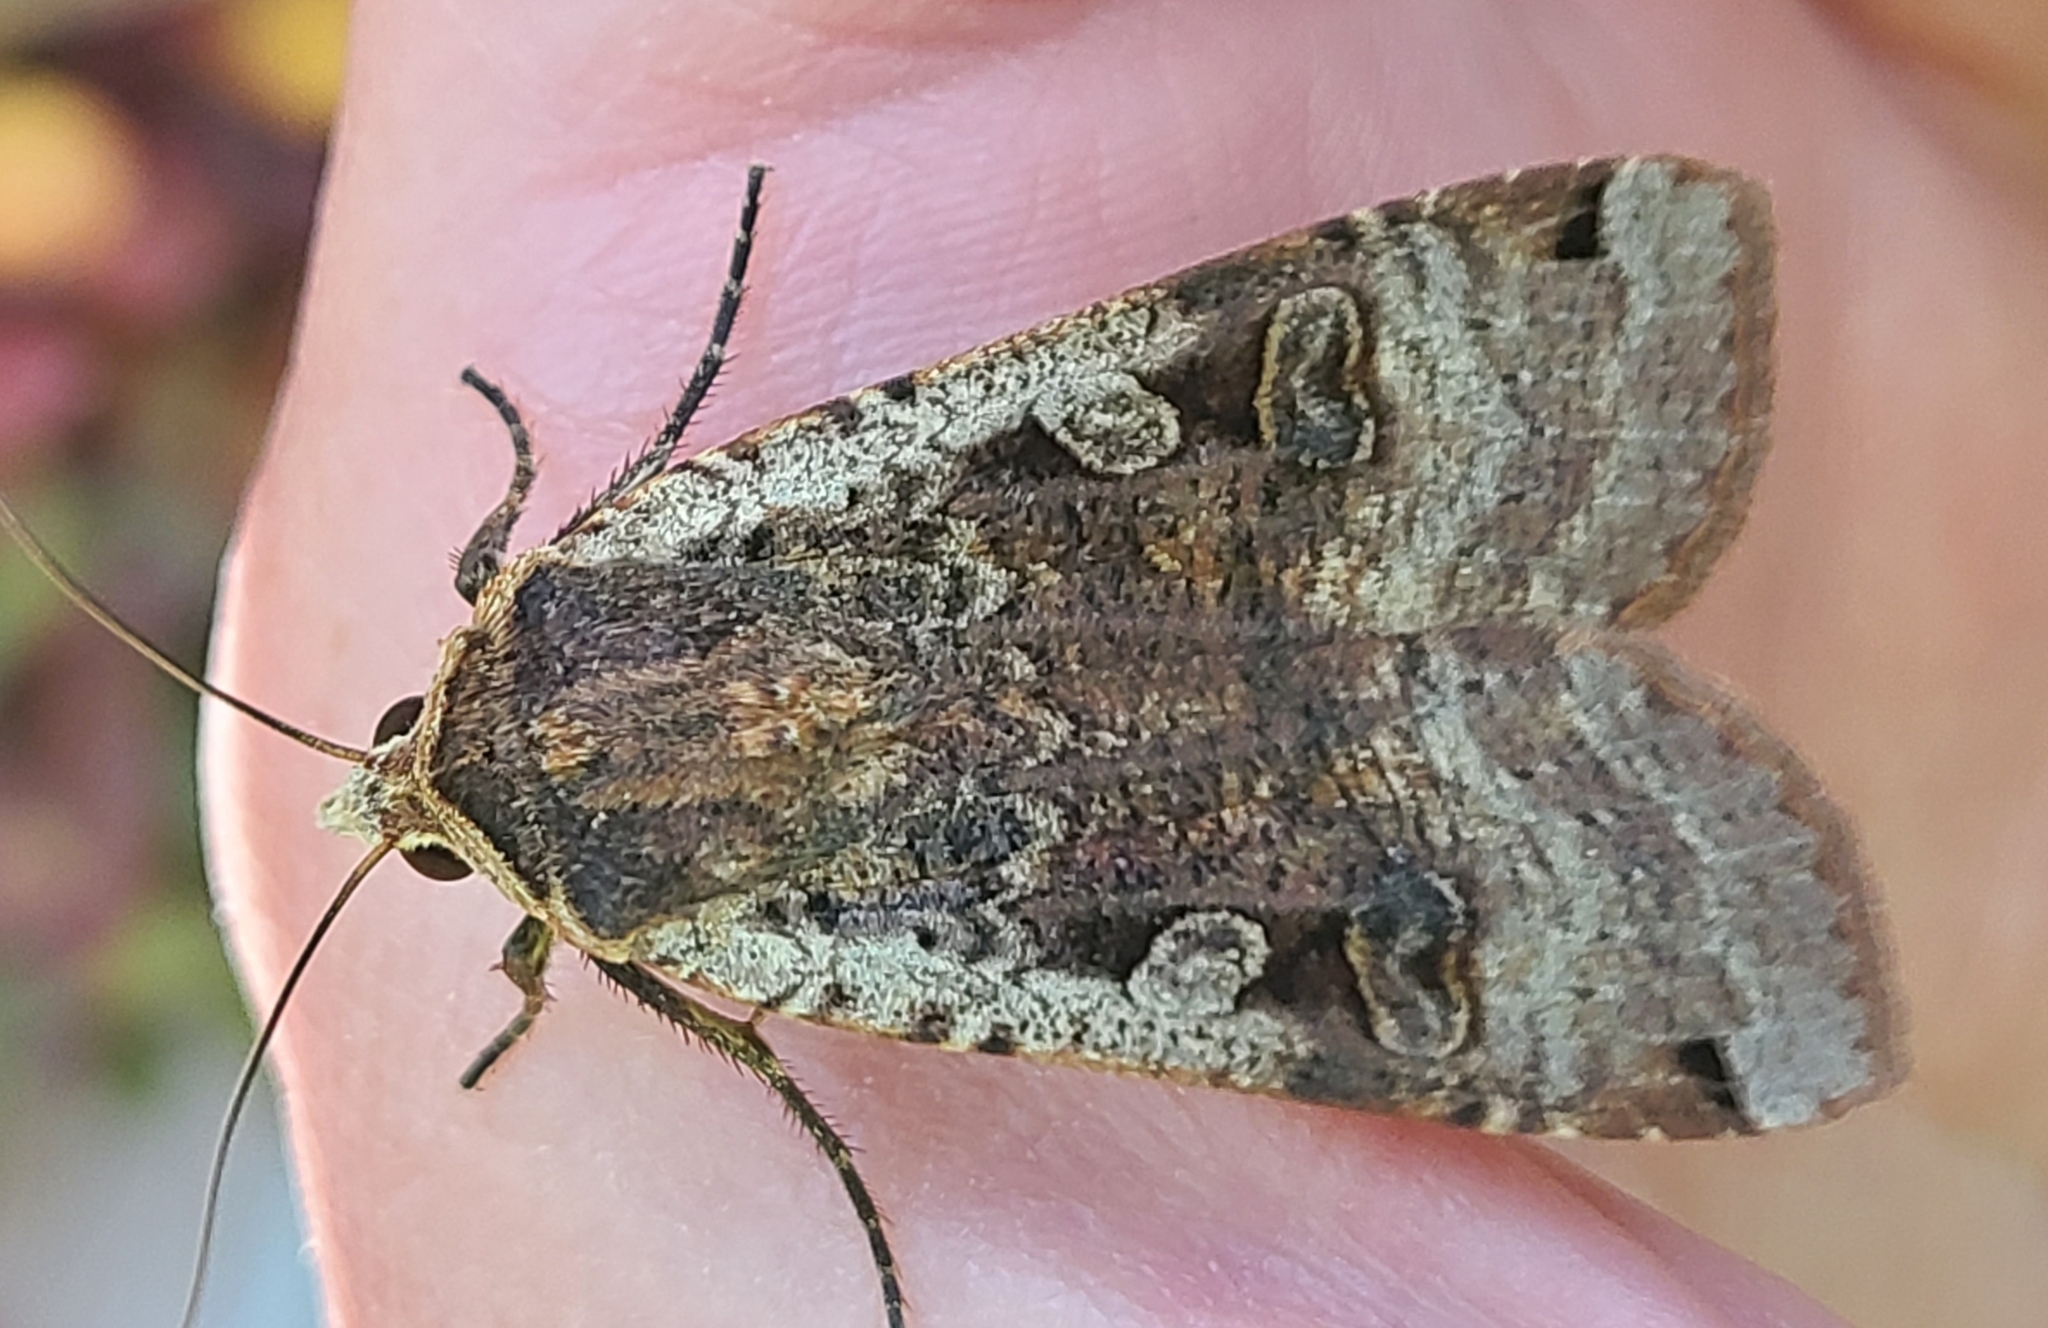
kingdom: Animalia
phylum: Arthropoda
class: Insecta
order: Lepidoptera
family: Noctuidae
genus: Noctua
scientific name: Noctua pronuba
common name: Large yellow underwing
